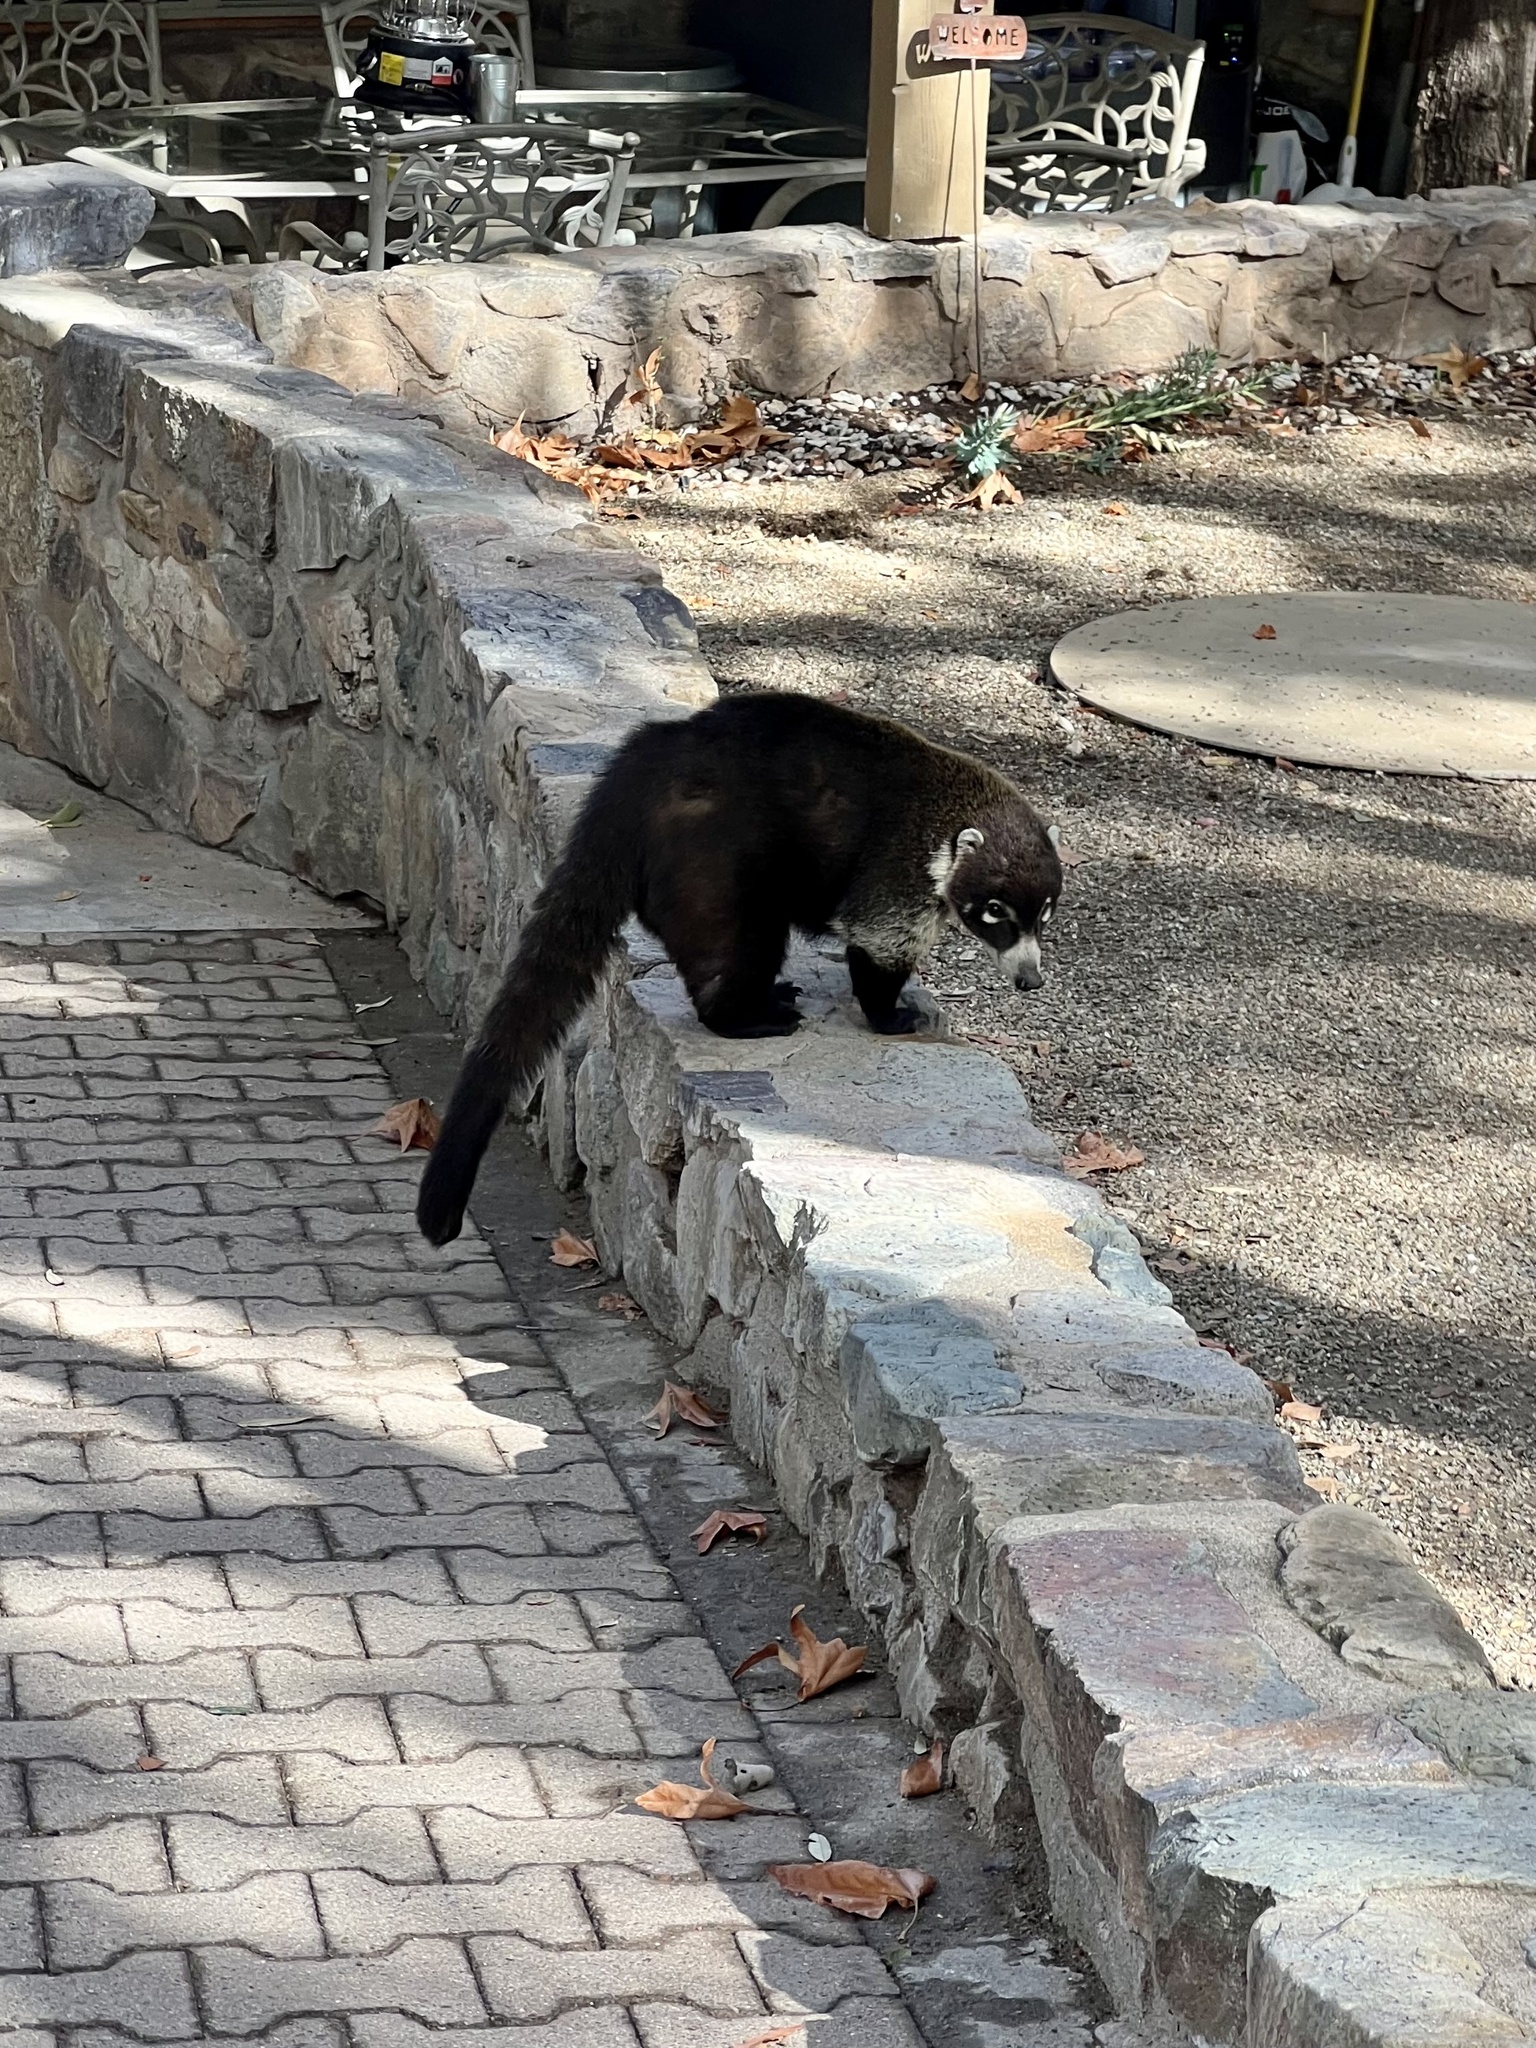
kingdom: Animalia
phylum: Chordata
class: Mammalia
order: Carnivora
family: Procyonidae
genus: Nasua
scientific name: Nasua narica
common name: White-nosed coati
